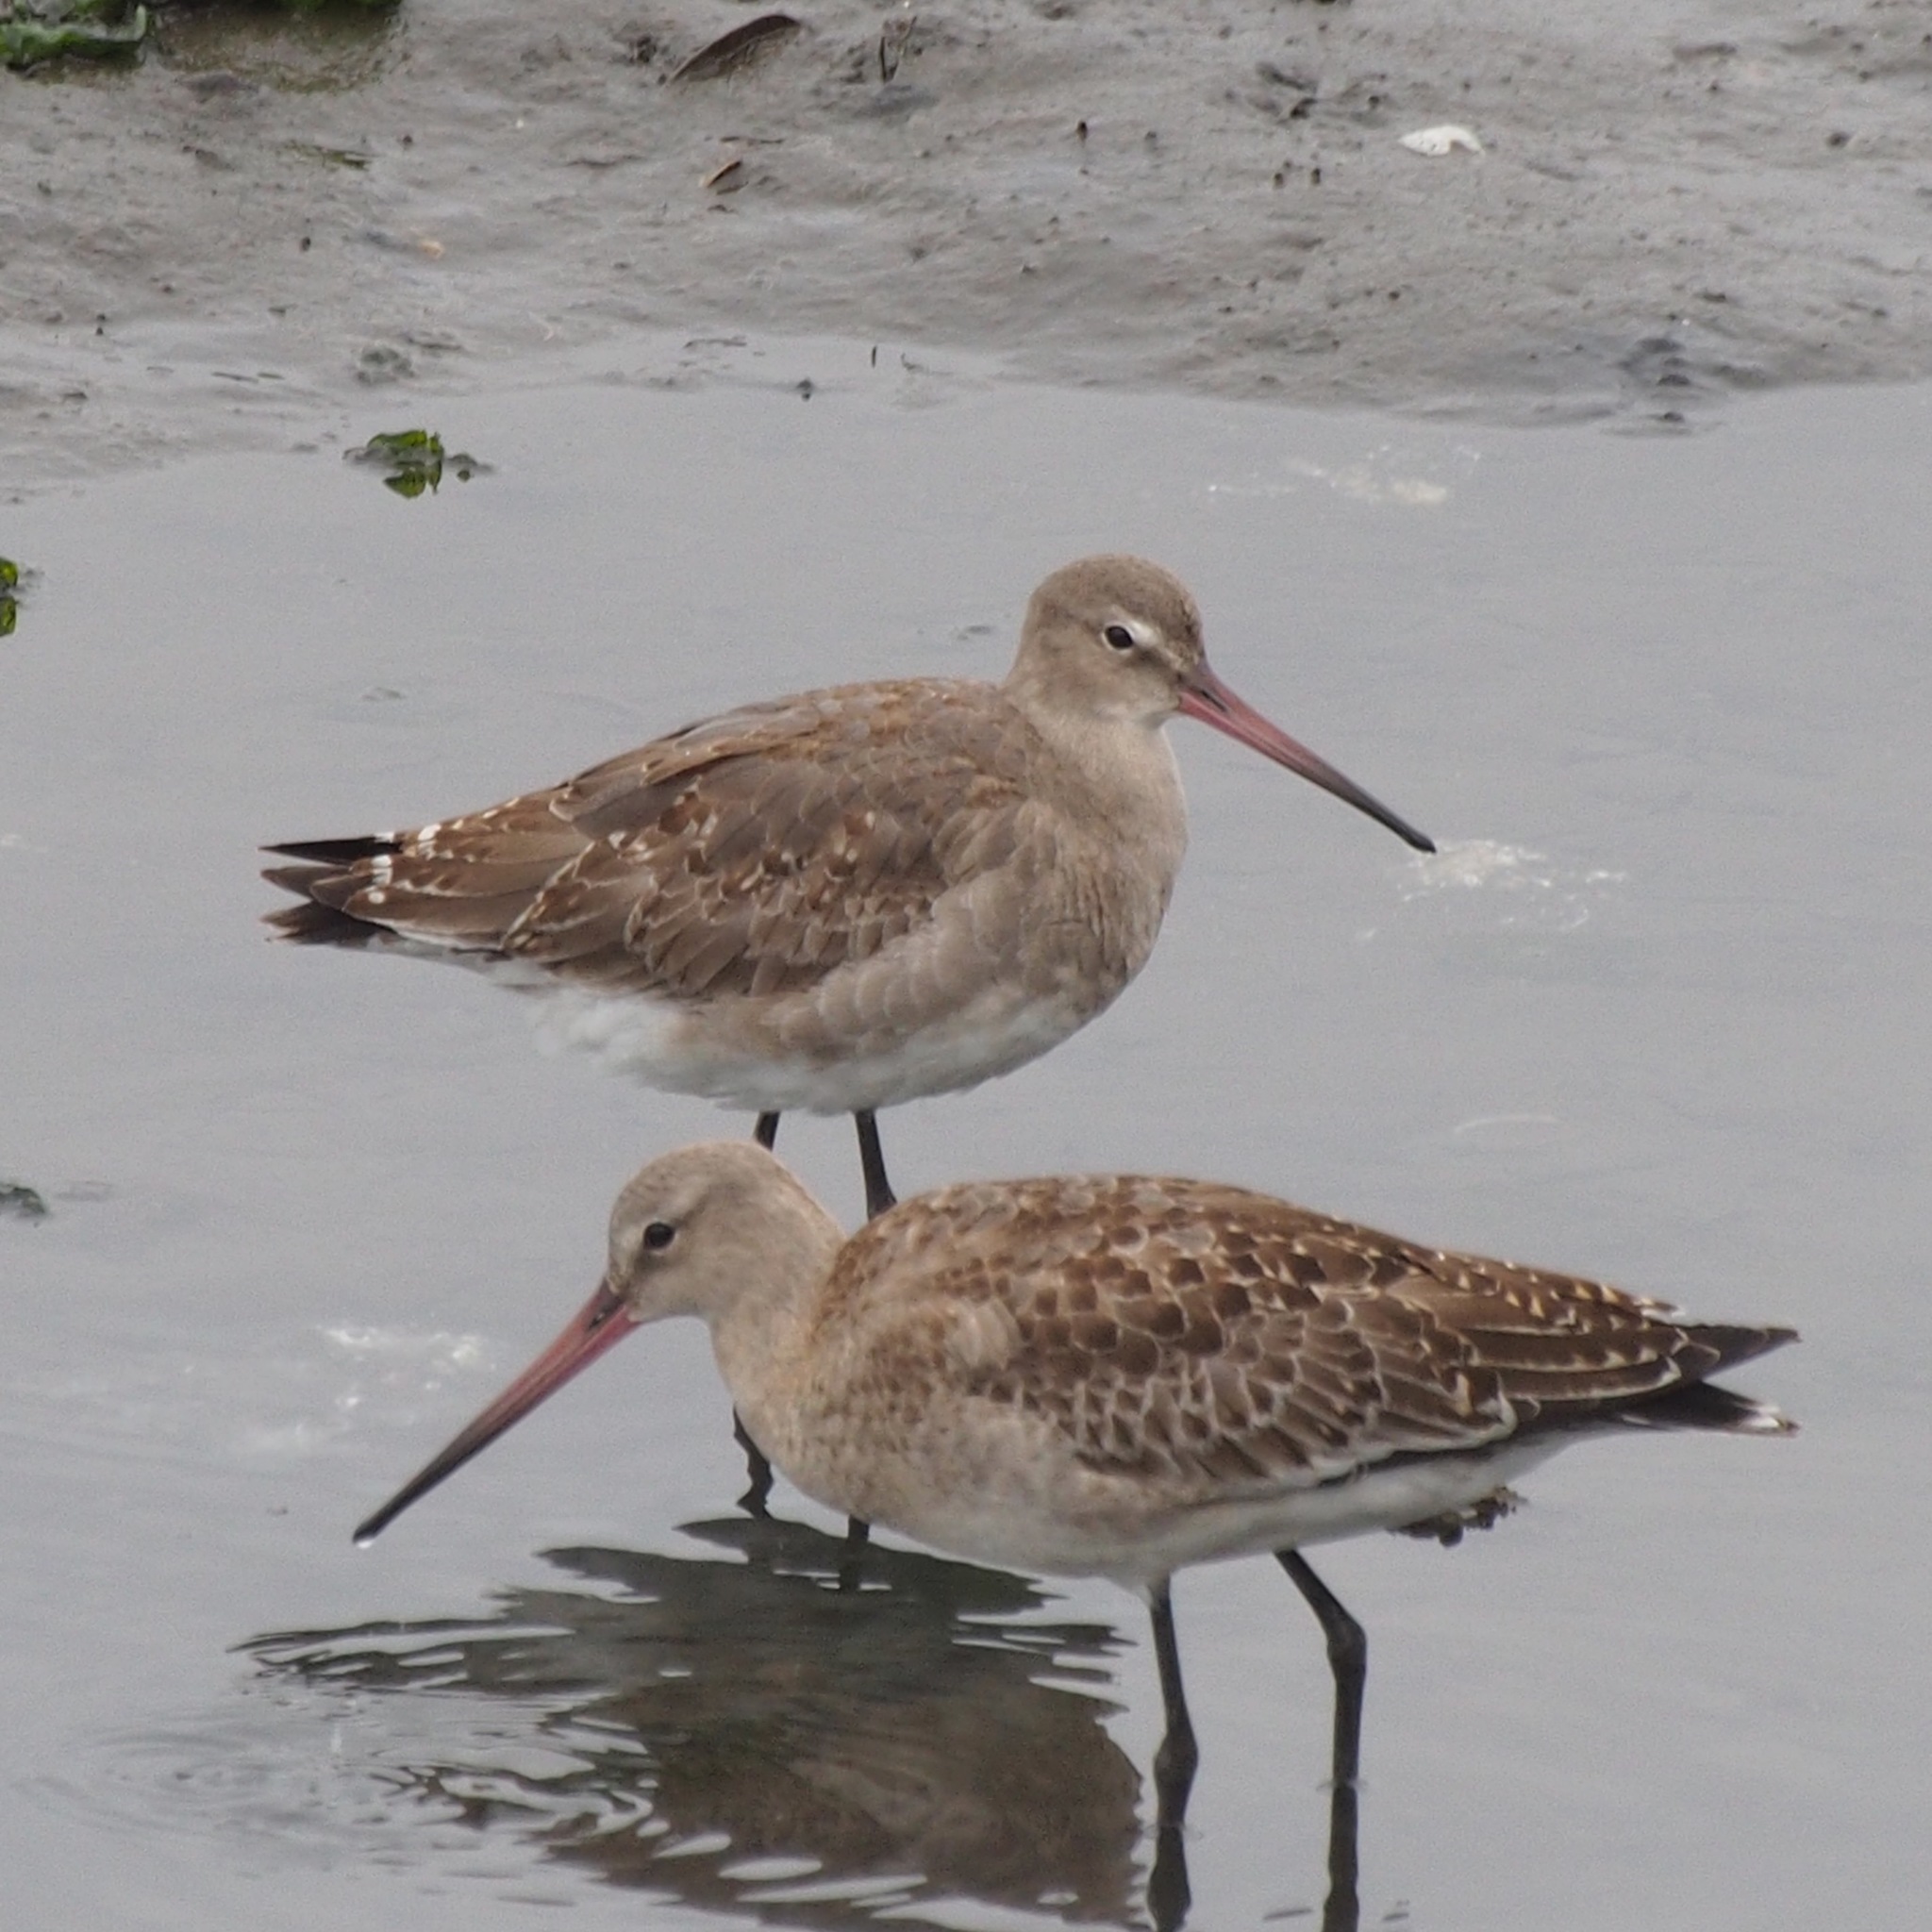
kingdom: Animalia
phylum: Chordata
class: Aves
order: Charadriiformes
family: Scolopacidae
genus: Limosa
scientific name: Limosa limosa
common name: Black-tailed godwit
